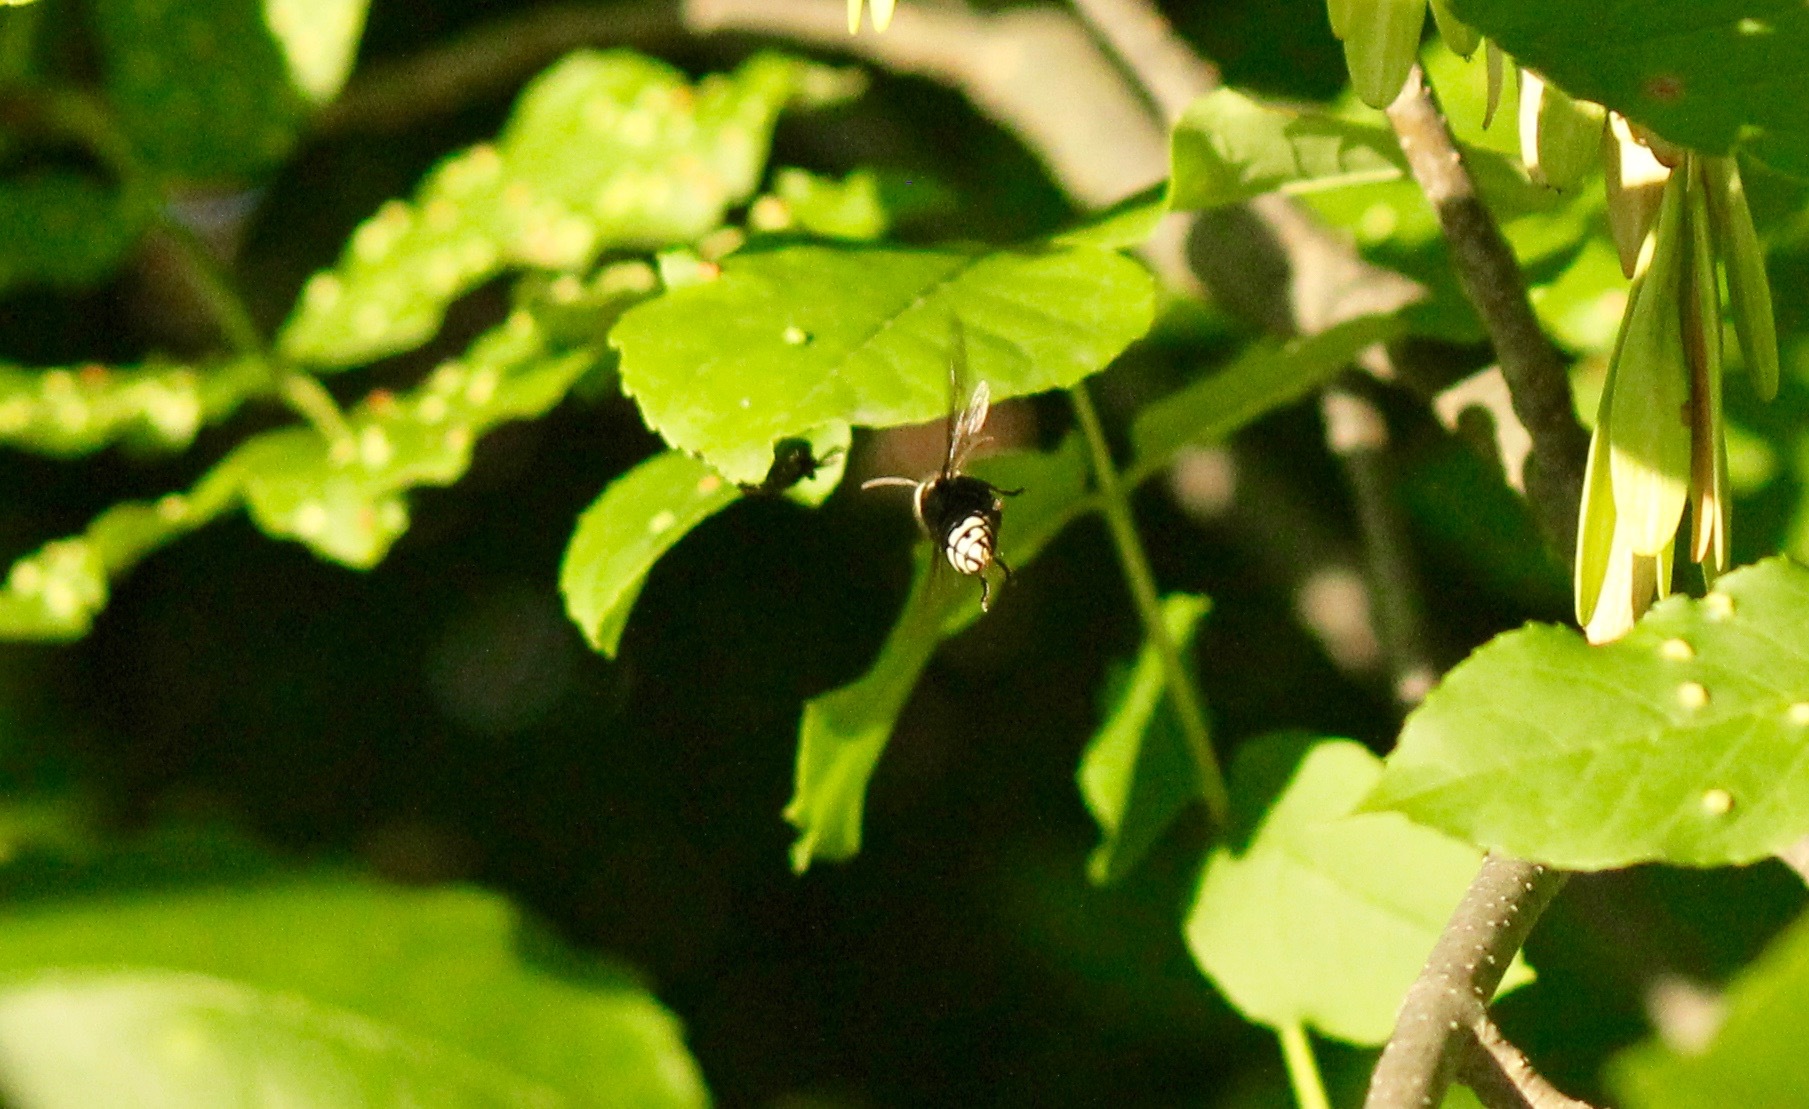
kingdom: Animalia
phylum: Arthropoda
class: Insecta
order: Hymenoptera
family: Vespidae
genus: Dolichovespula
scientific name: Dolichovespula maculata
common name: Bald-faced hornet
